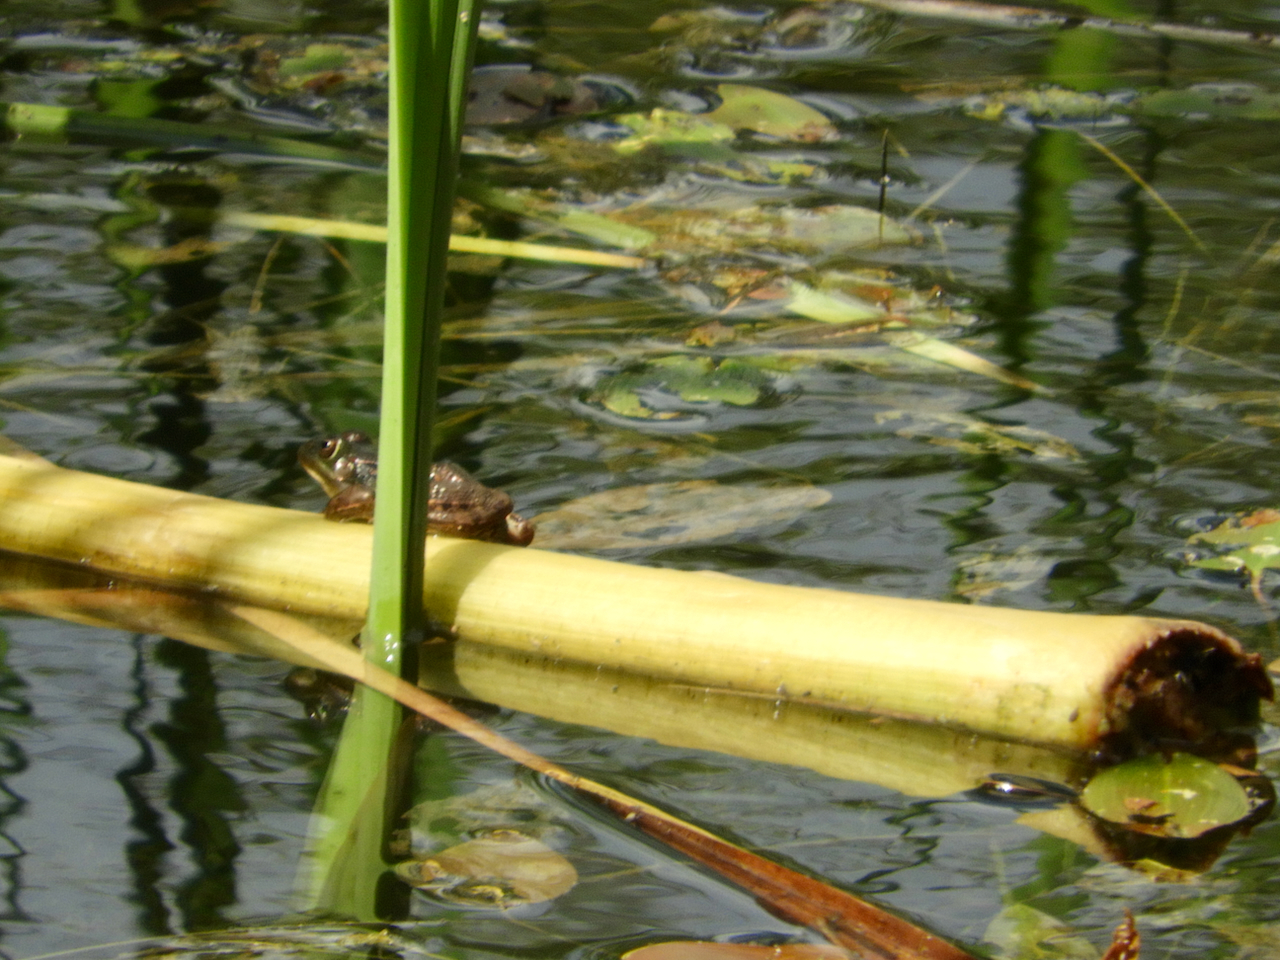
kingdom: Animalia
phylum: Chordata
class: Amphibia
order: Anura
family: Ranidae
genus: Pelophylax
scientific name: Pelophylax
